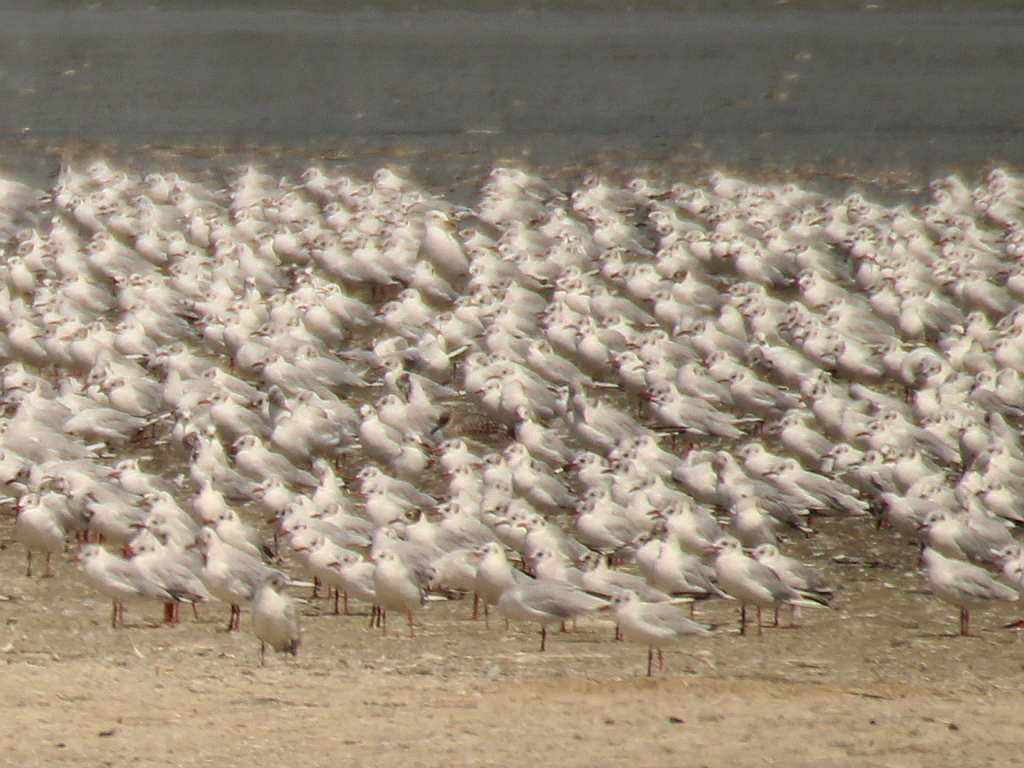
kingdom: Animalia
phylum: Chordata
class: Aves
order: Charadriiformes
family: Laridae
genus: Chroicocephalus
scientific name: Chroicocephalus ridibundus
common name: Black-headed gull
